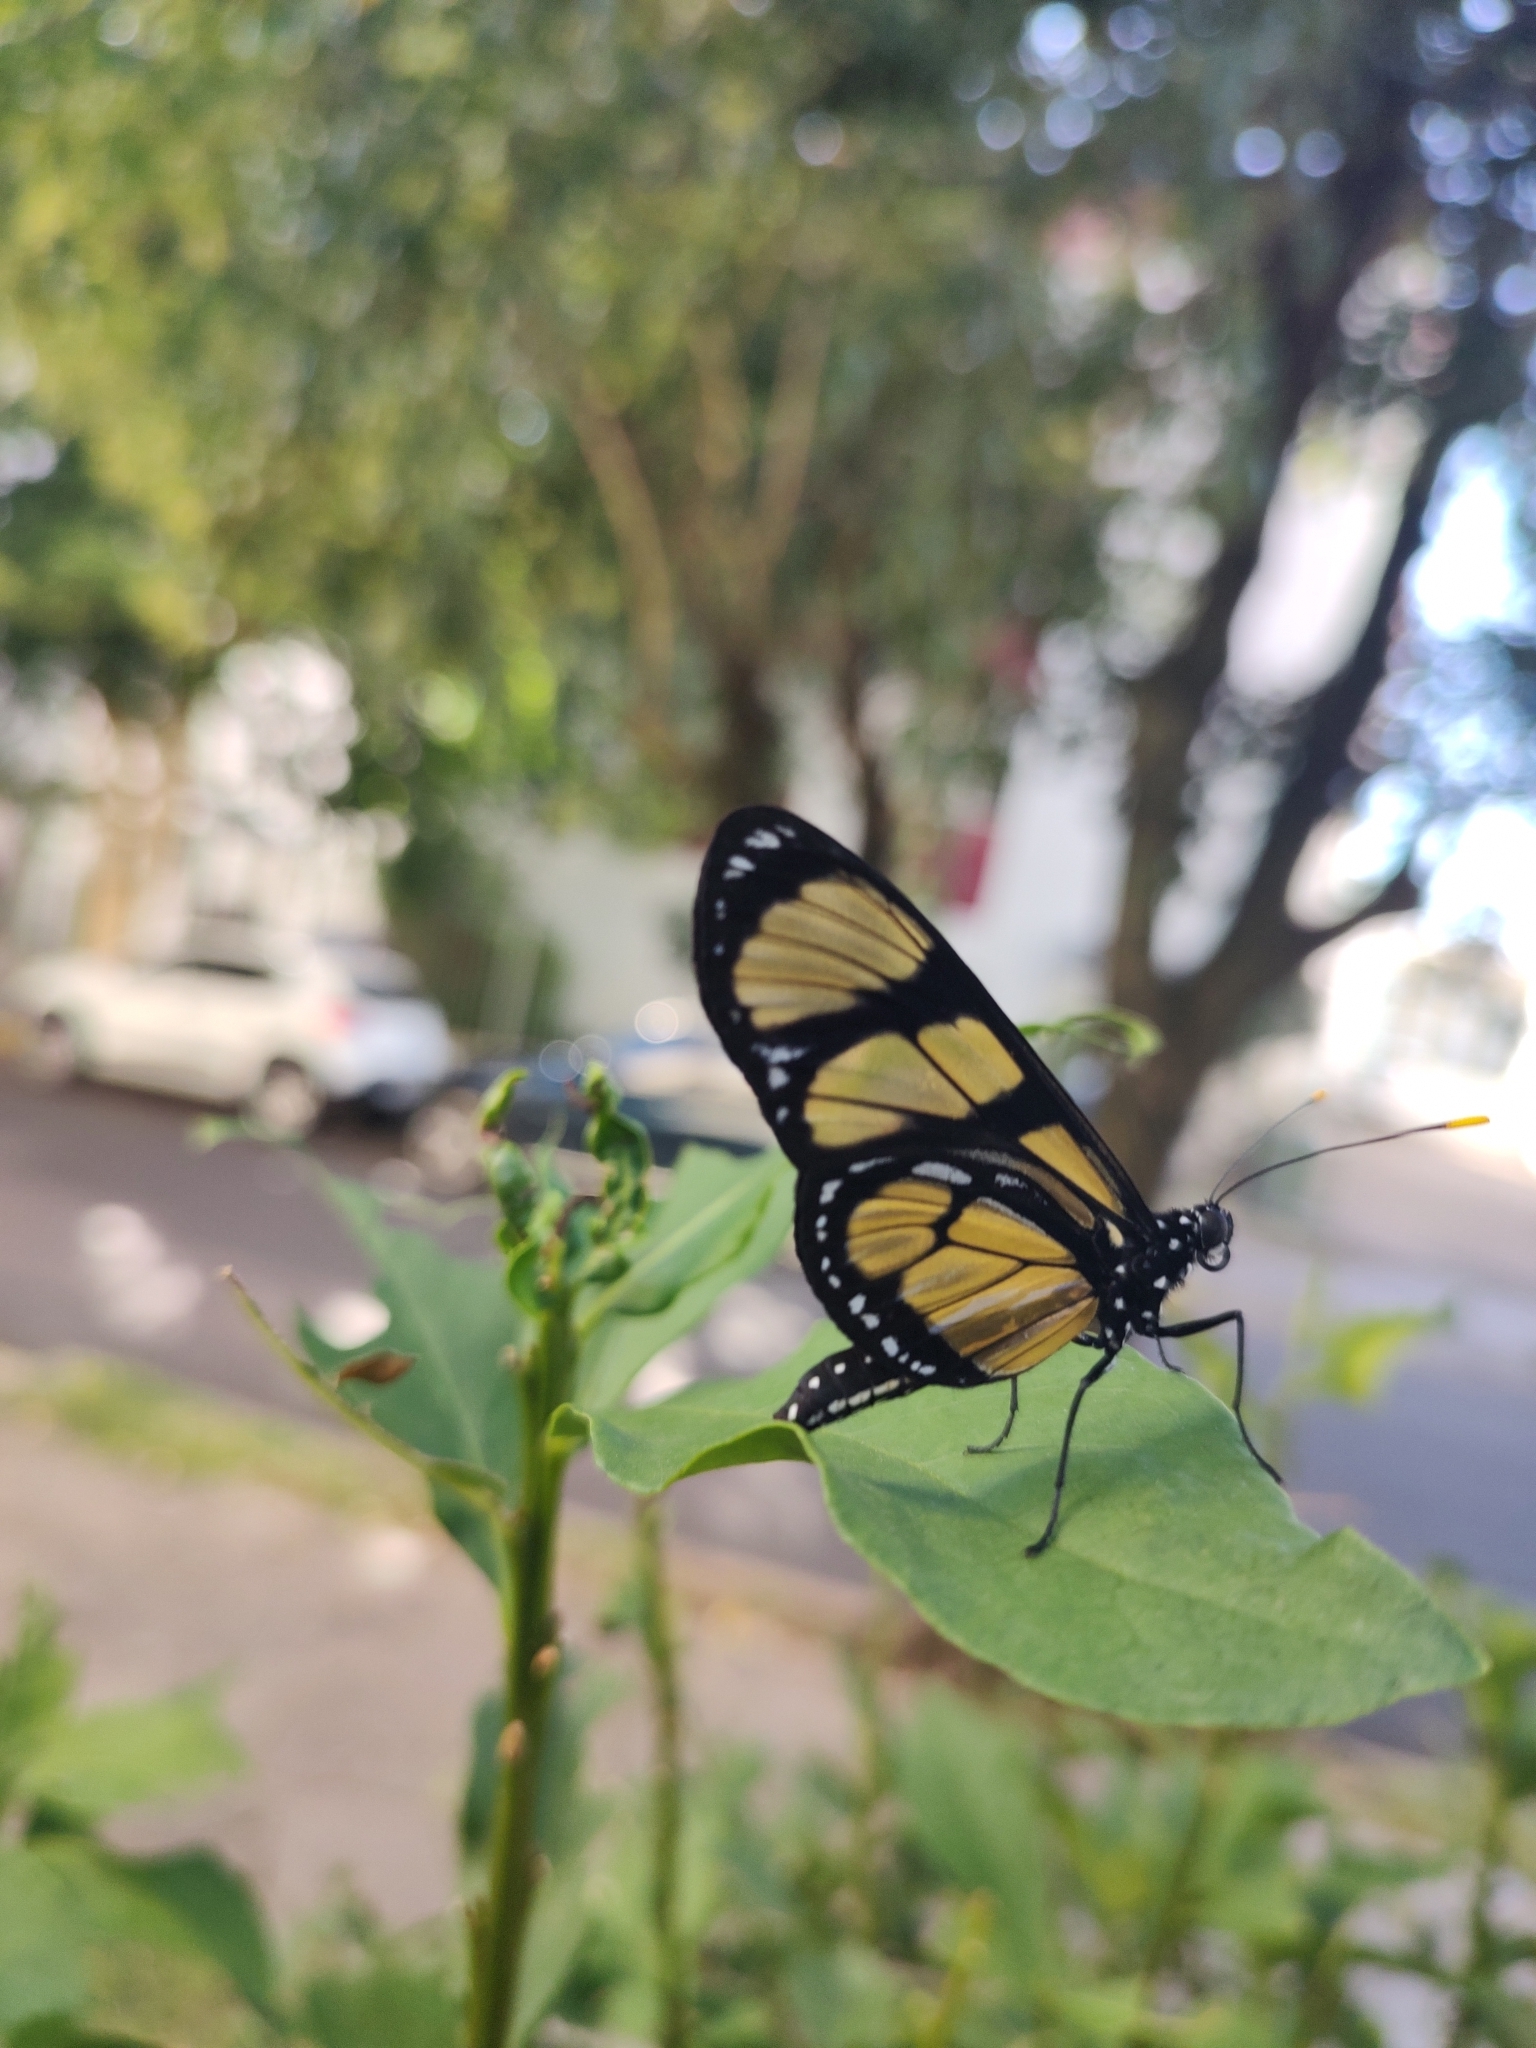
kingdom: Animalia
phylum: Arthropoda
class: Insecta
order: Lepidoptera
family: Nymphalidae
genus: Methona
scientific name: Methona themisto
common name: Themisto amberwing
